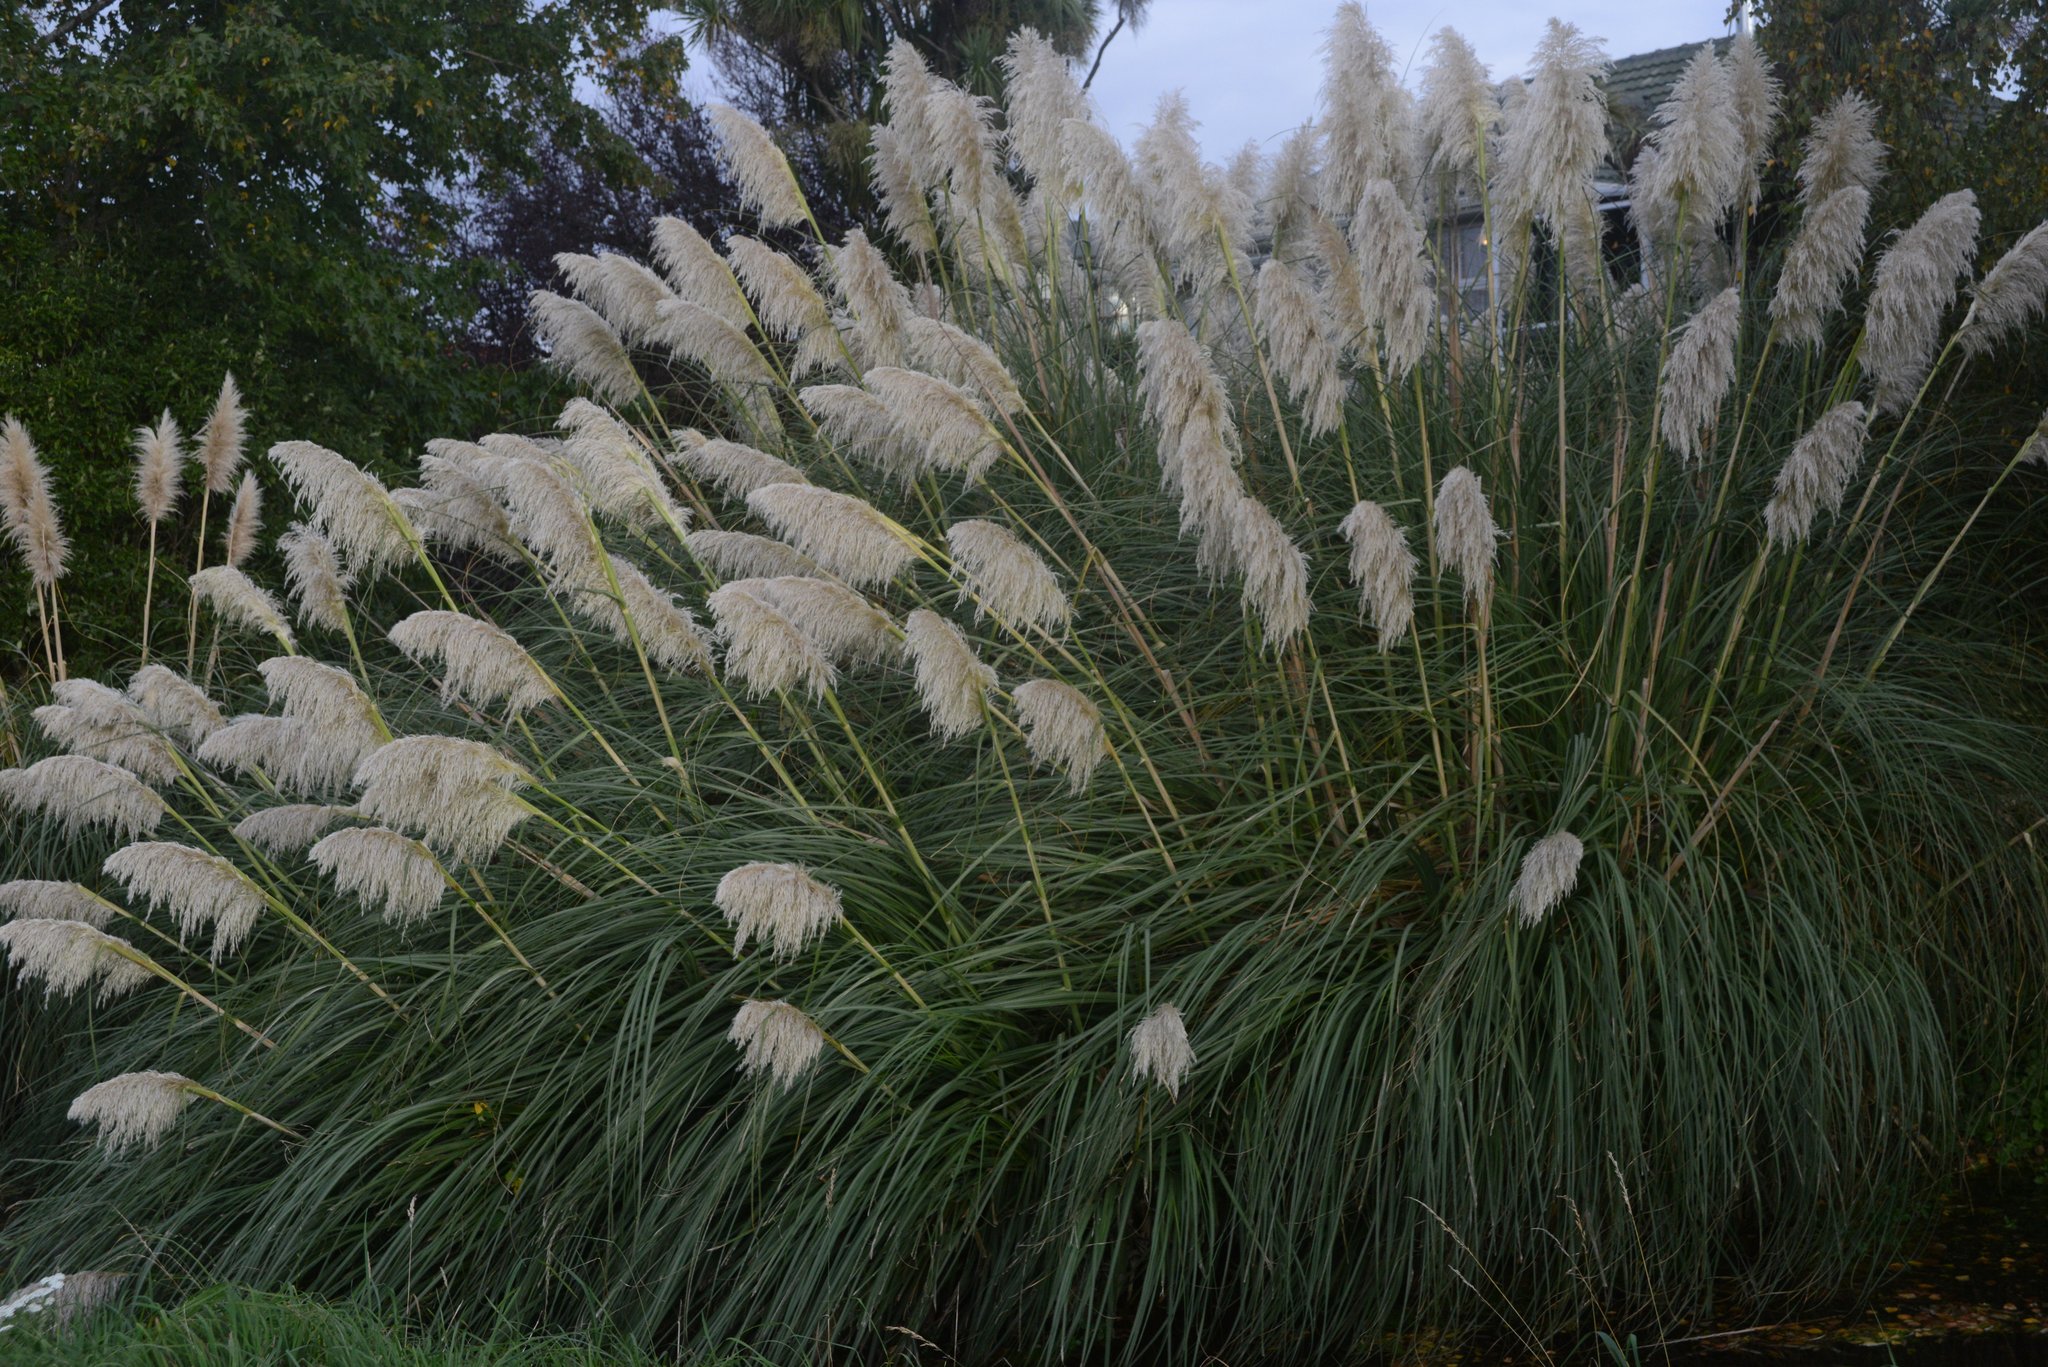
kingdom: Plantae
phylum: Tracheophyta
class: Liliopsida
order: Poales
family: Poaceae
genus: Cortaderia
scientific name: Cortaderia selloana
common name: Uruguayan pampas grass
